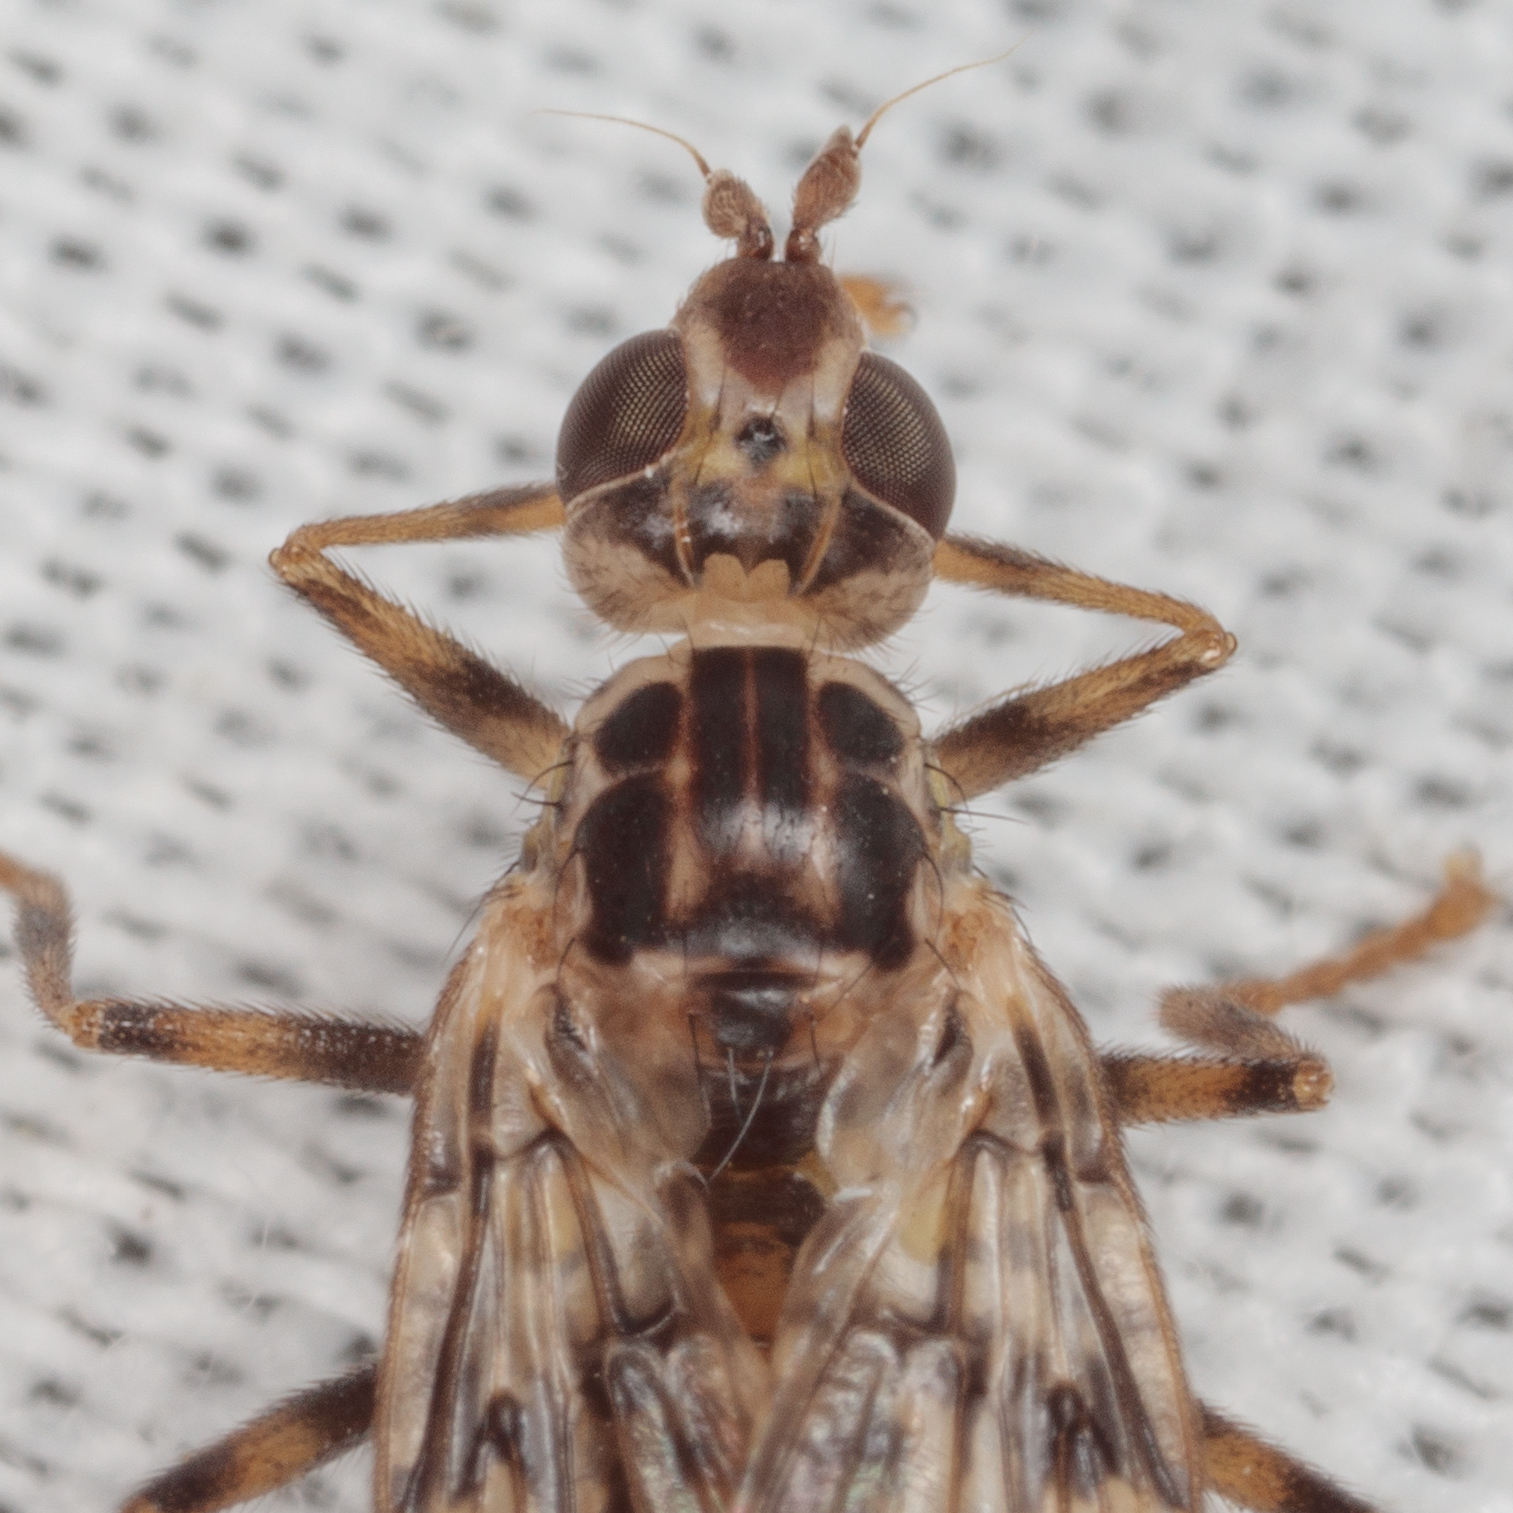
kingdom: Animalia
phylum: Arthropoda
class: Insecta
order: Diptera
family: Pyrgotidae
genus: Boreothrinax
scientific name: Boreothrinax
